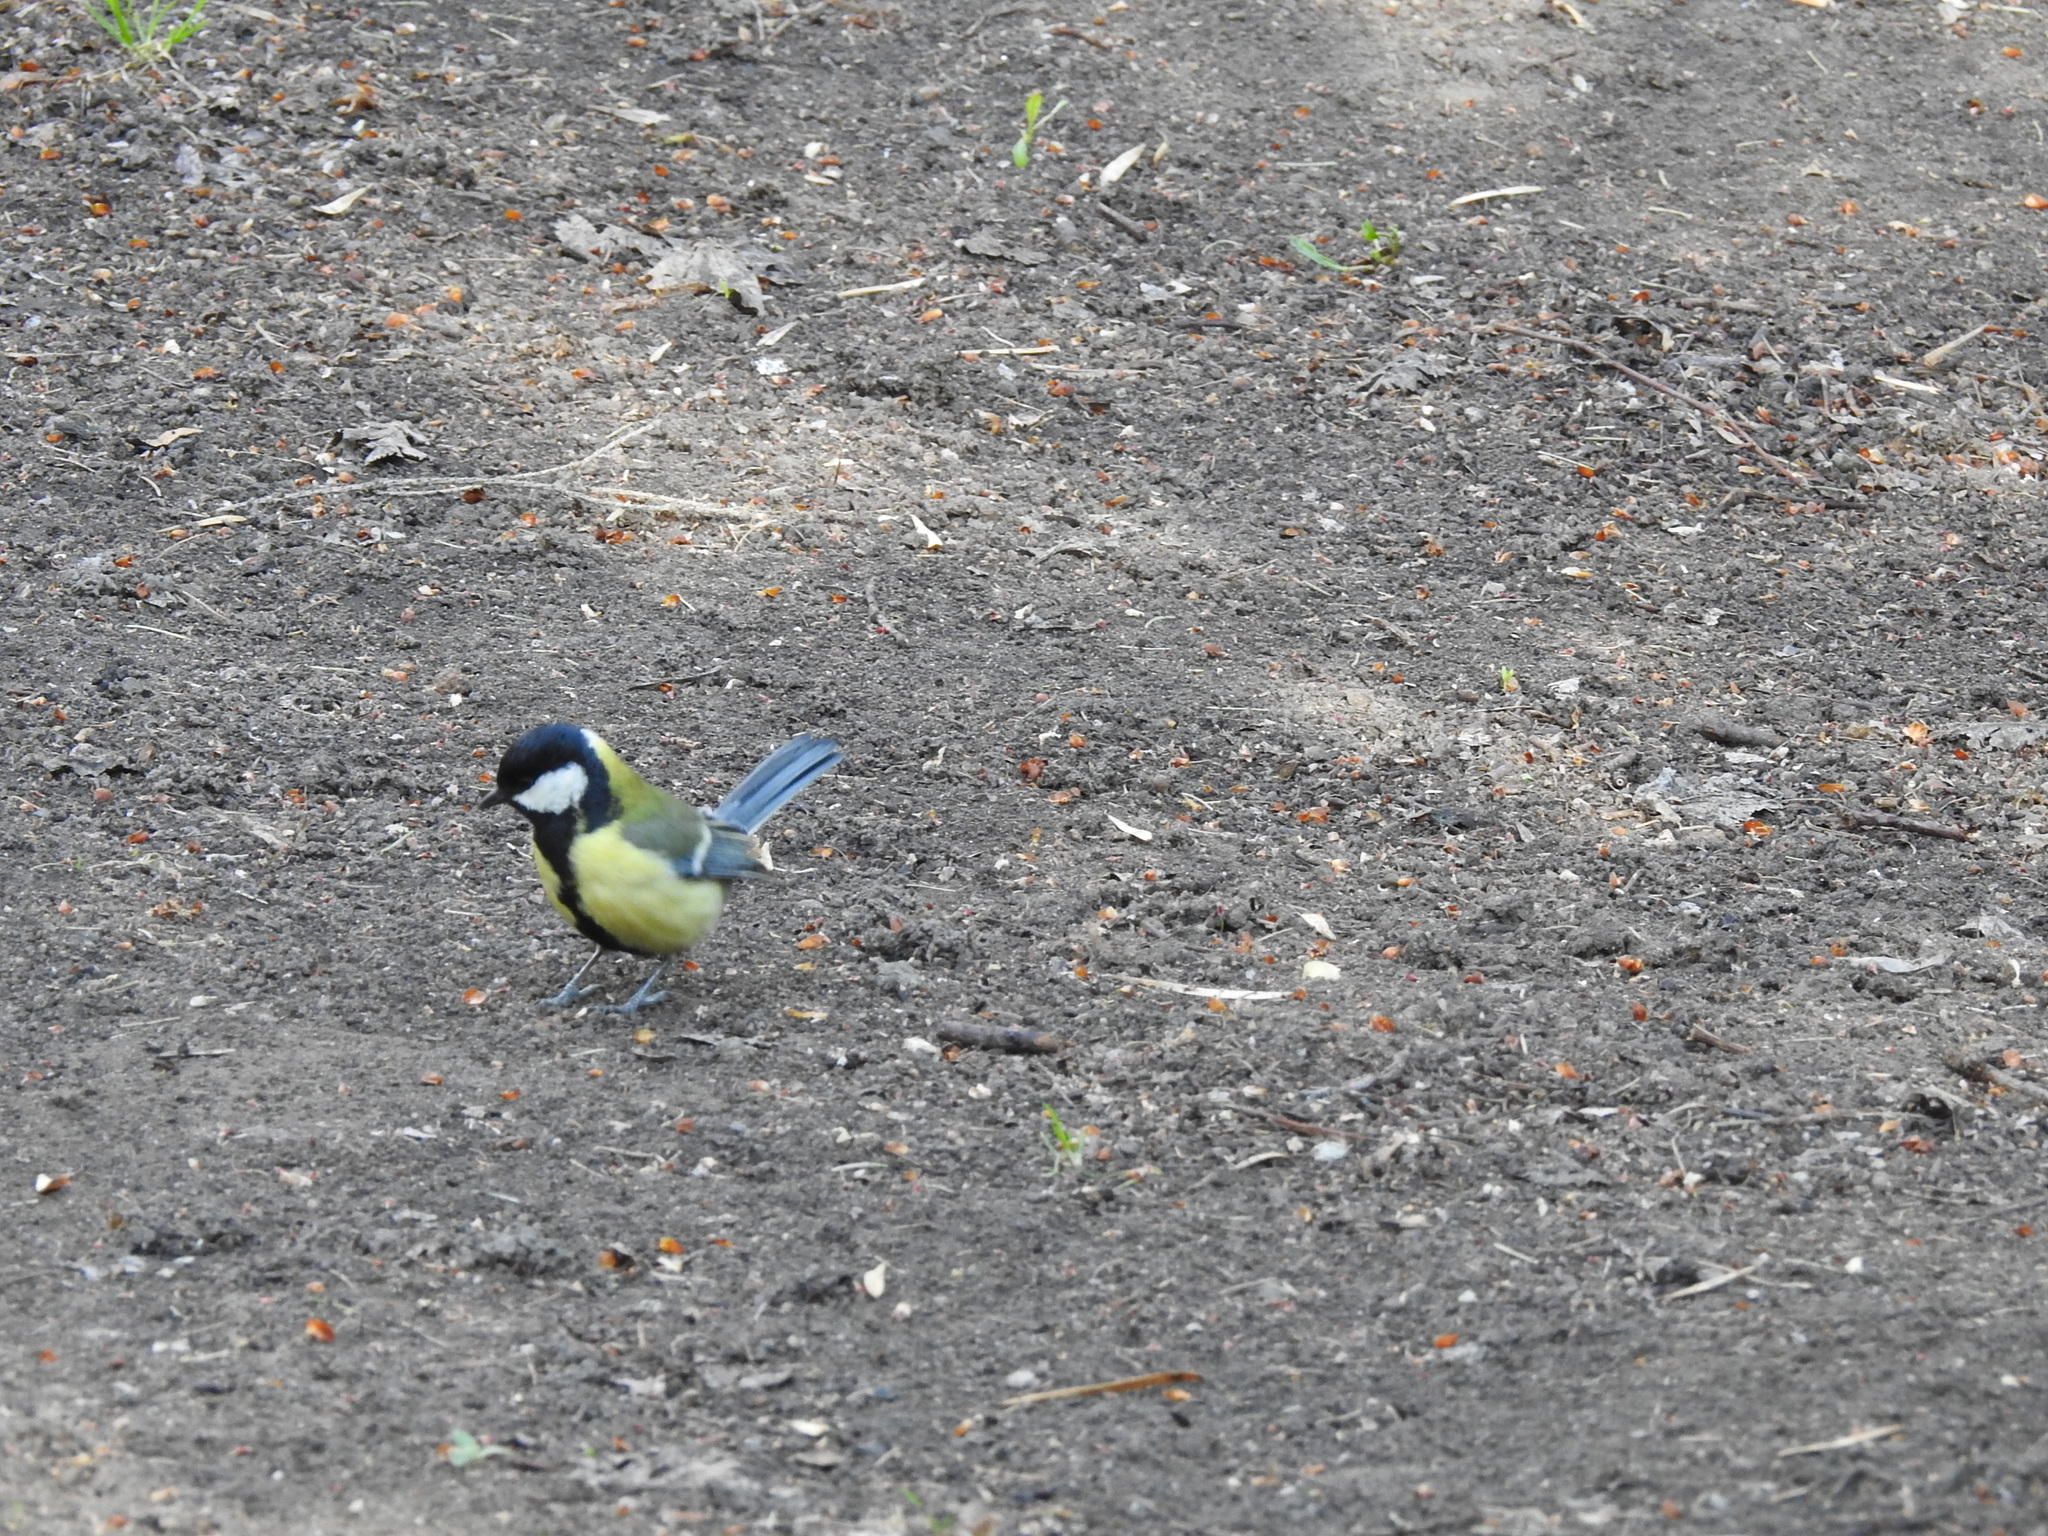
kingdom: Animalia
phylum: Chordata
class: Aves
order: Passeriformes
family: Paridae
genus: Parus
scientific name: Parus major
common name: Great tit
